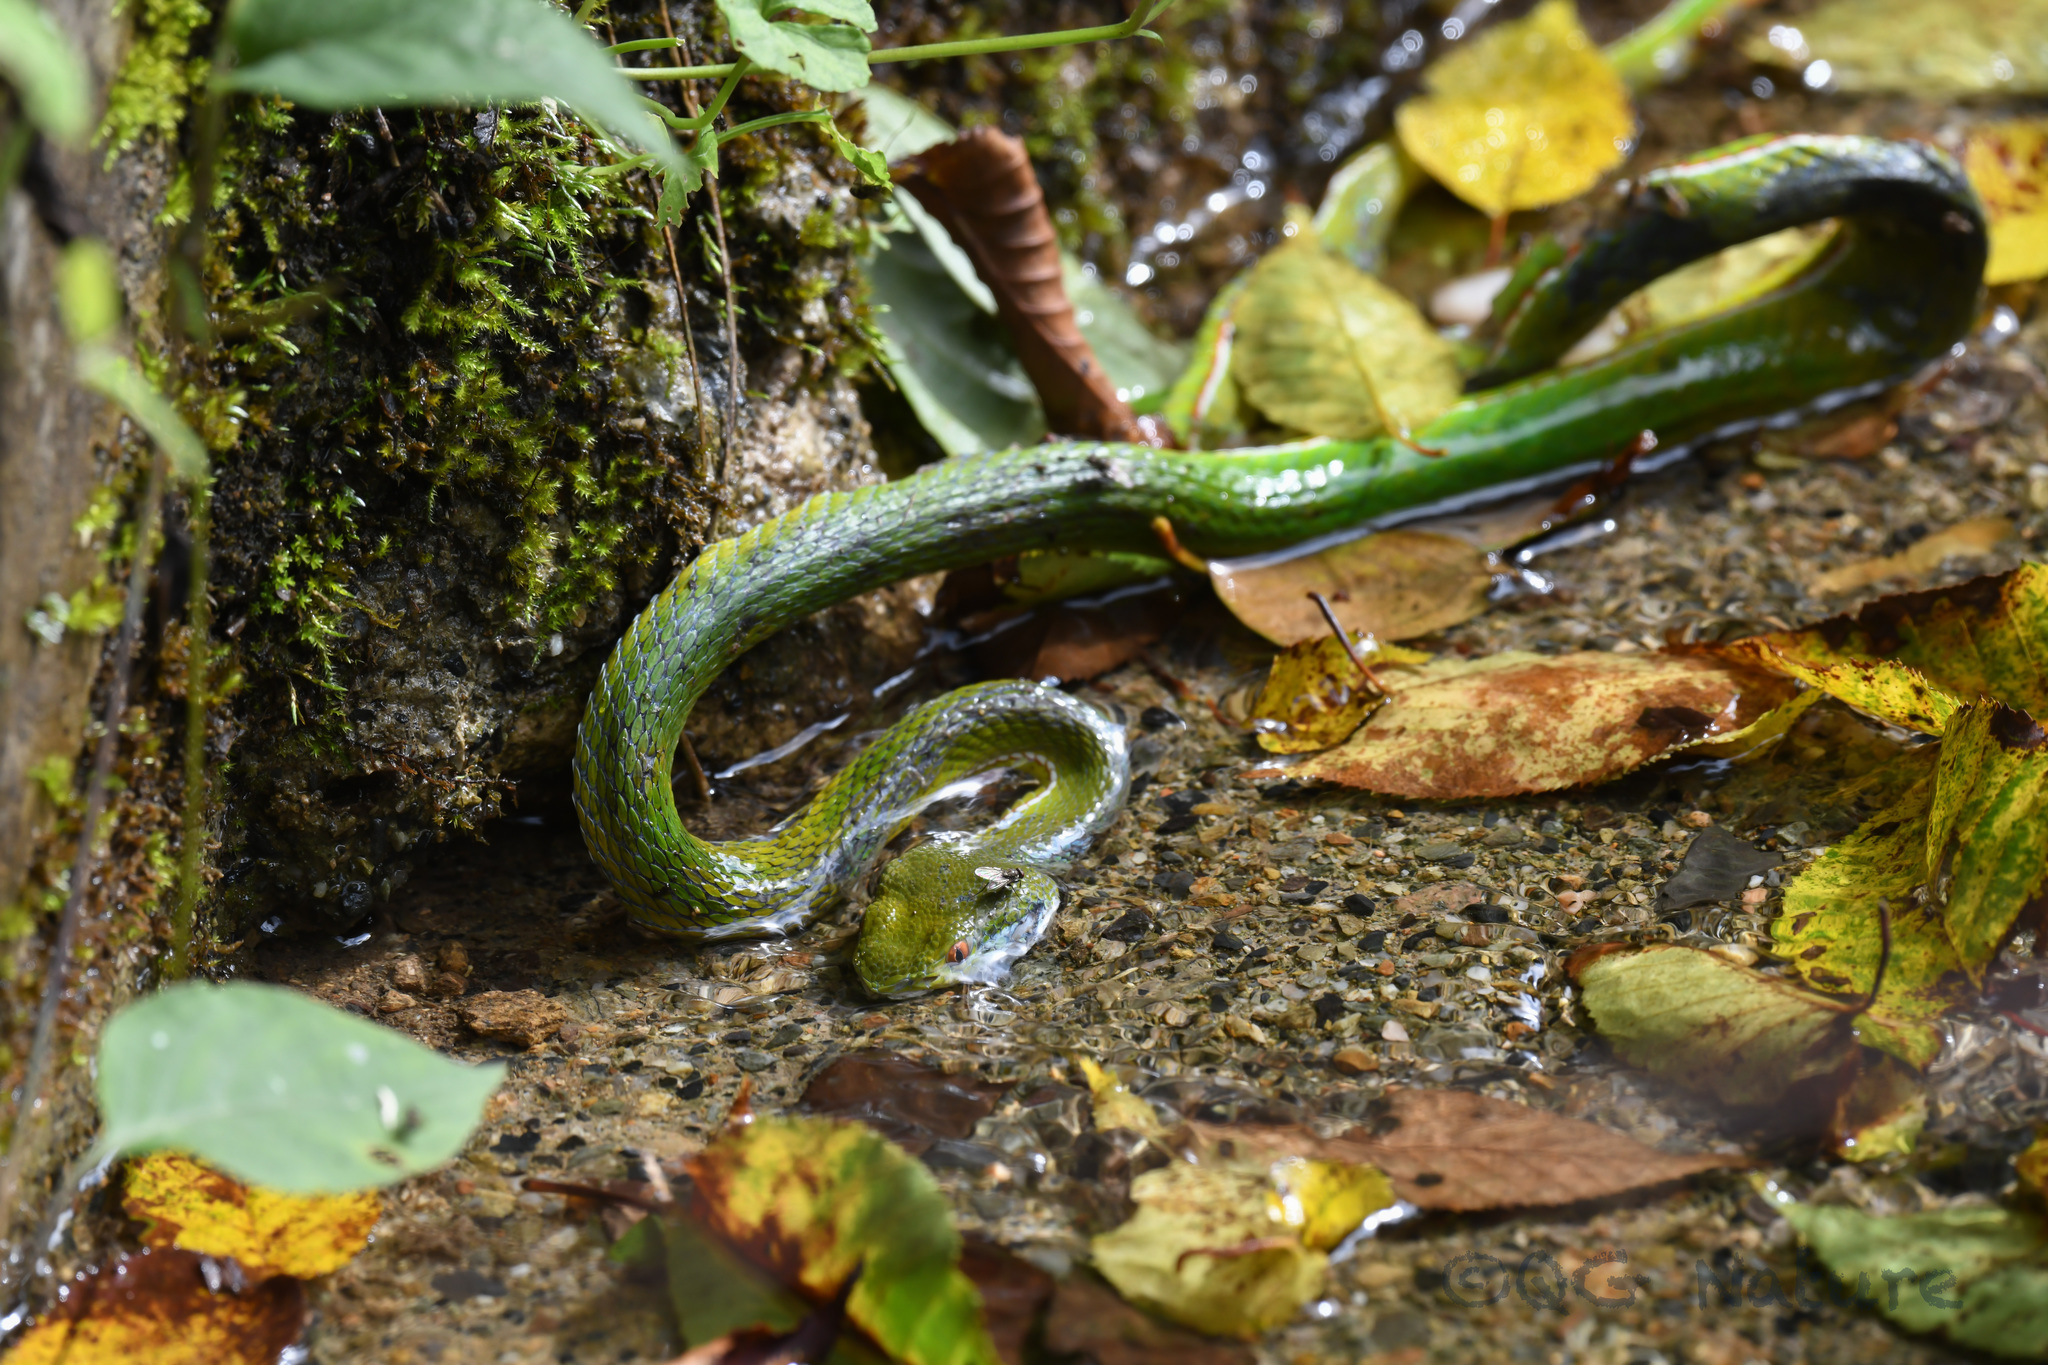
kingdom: Animalia
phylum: Chordata
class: Squamata
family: Viperidae
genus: Trimeresurus
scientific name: Trimeresurus stejnegeri
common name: Chen’s bamboo pit viper
